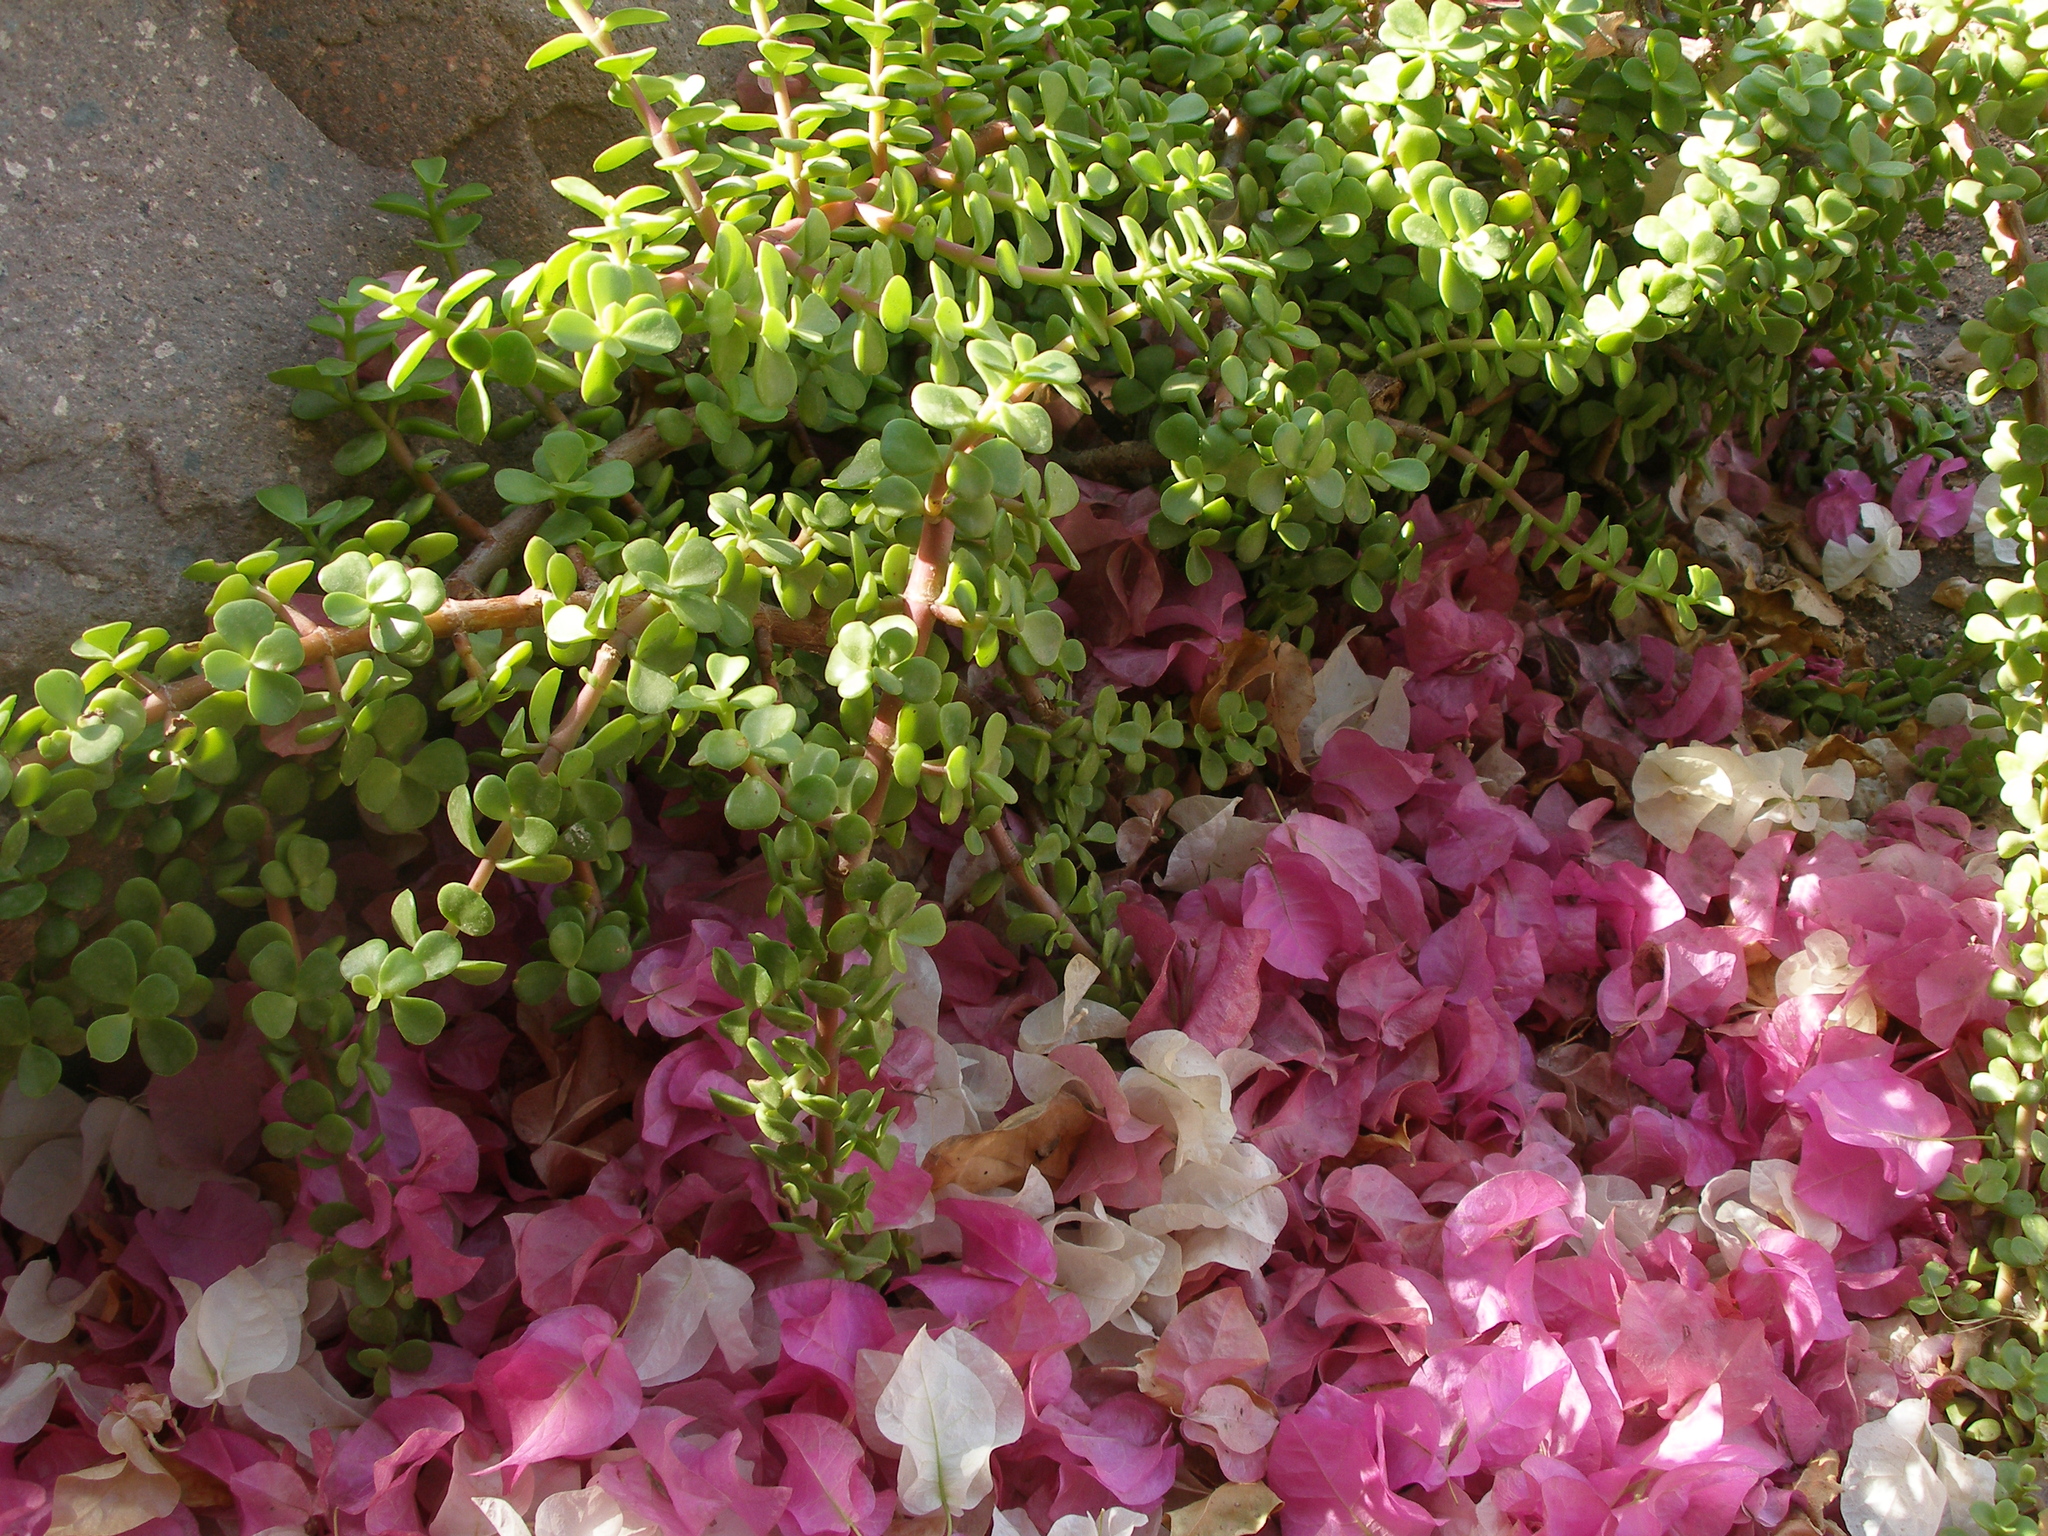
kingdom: Plantae
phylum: Tracheophyta
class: Magnoliopsida
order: Caryophyllales
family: Didiereaceae
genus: Portulacaria
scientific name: Portulacaria afra
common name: Elephant-bush
